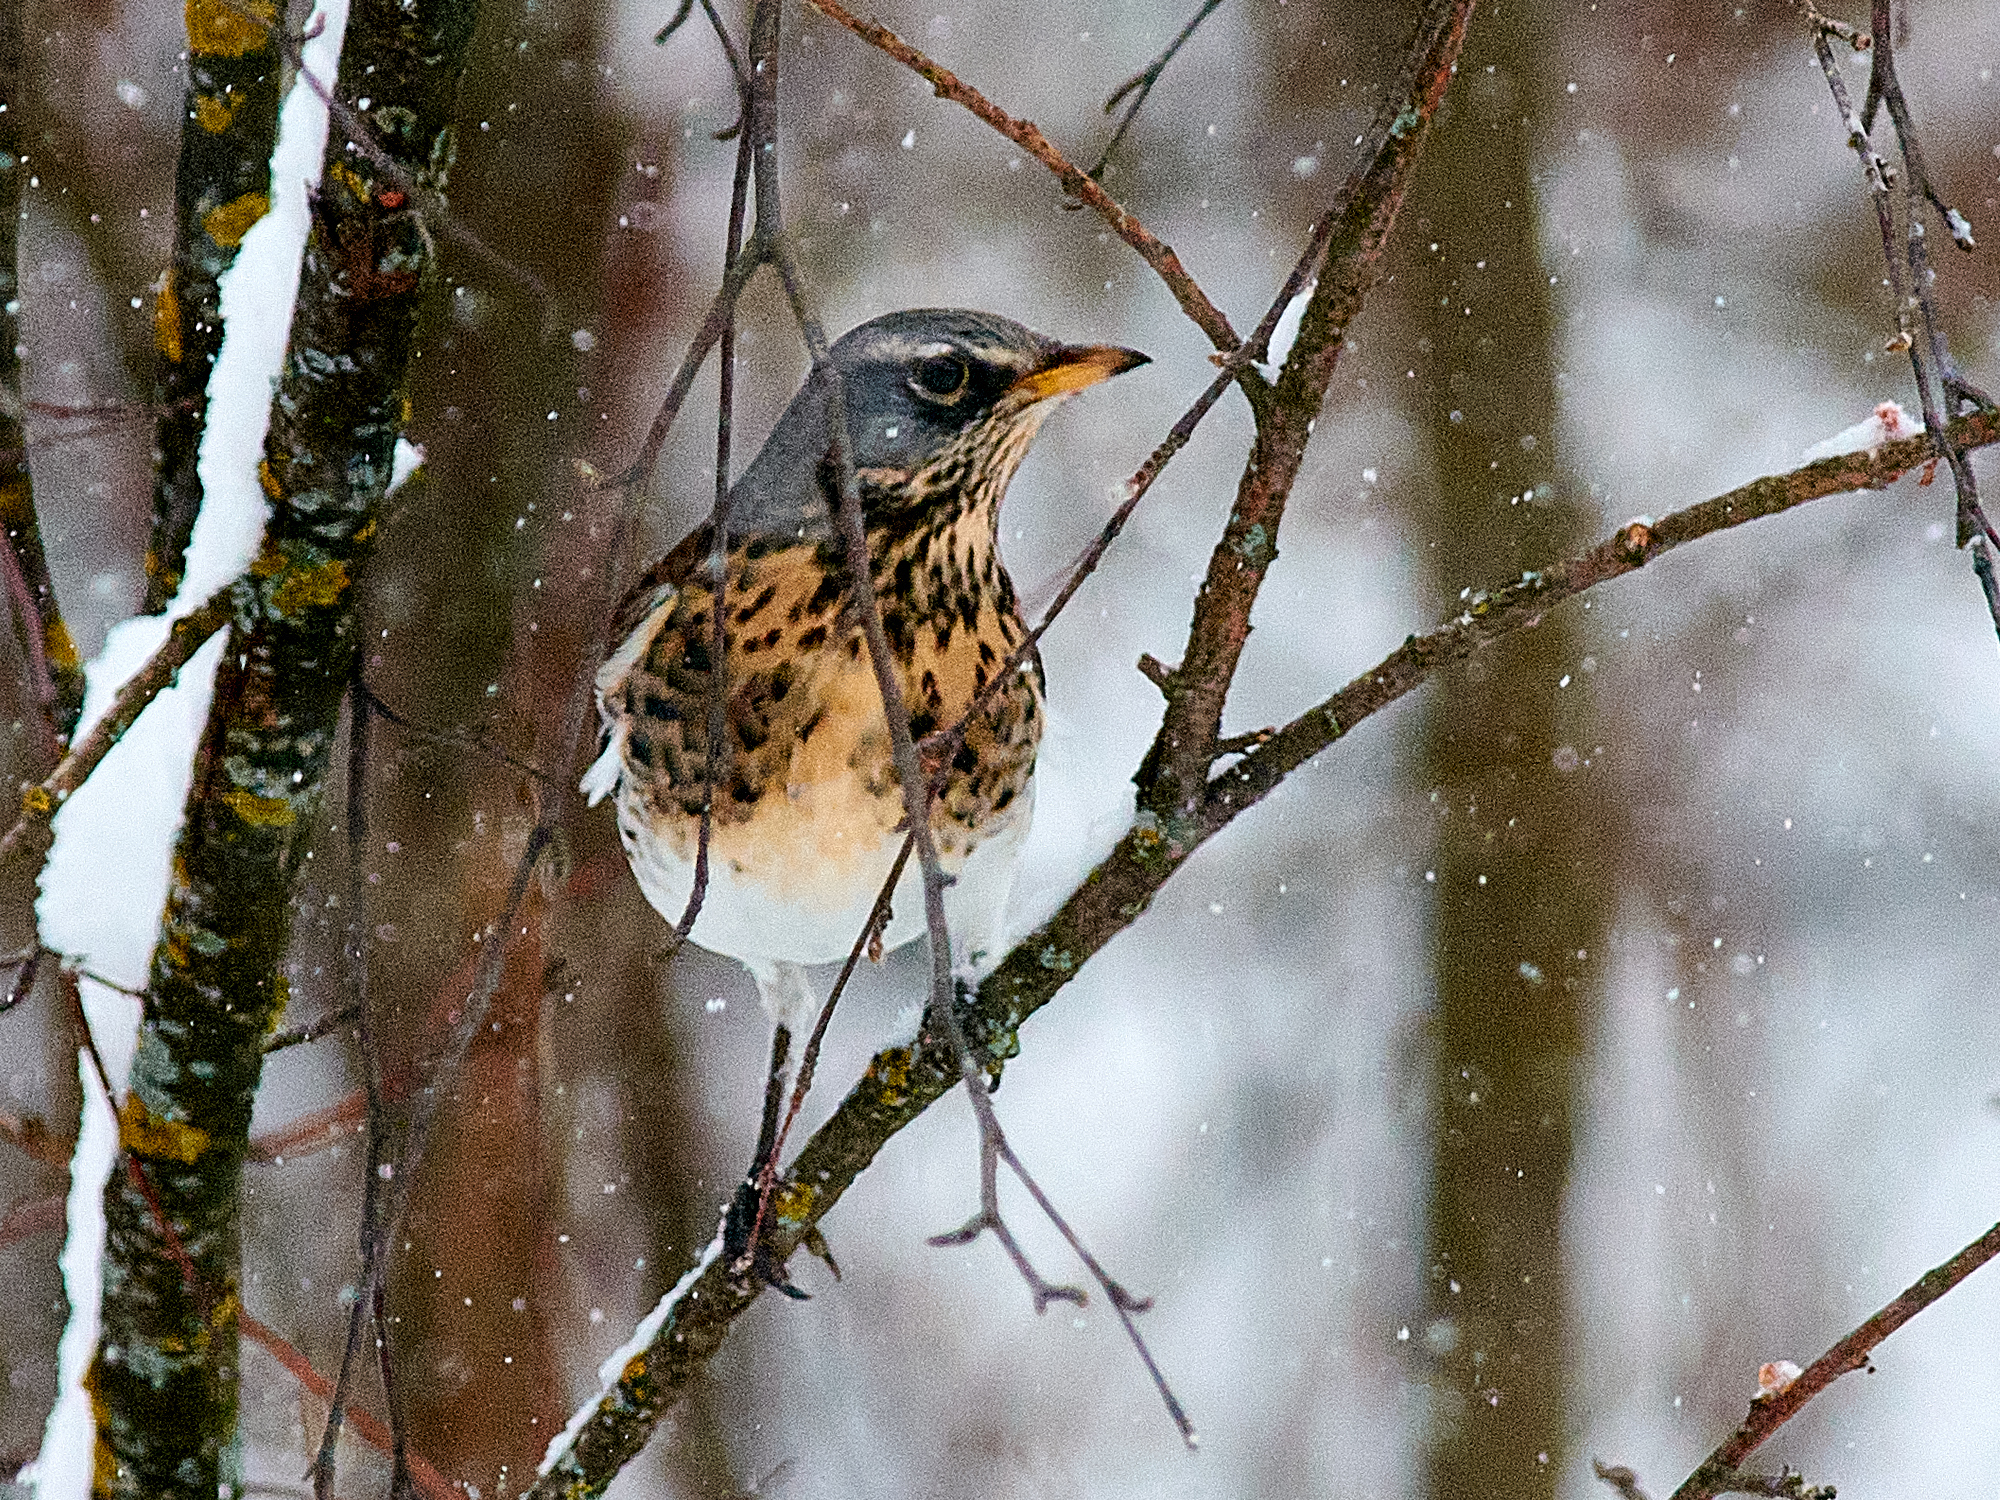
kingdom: Animalia
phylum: Chordata
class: Aves
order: Passeriformes
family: Turdidae
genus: Turdus
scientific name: Turdus pilaris
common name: Fieldfare
